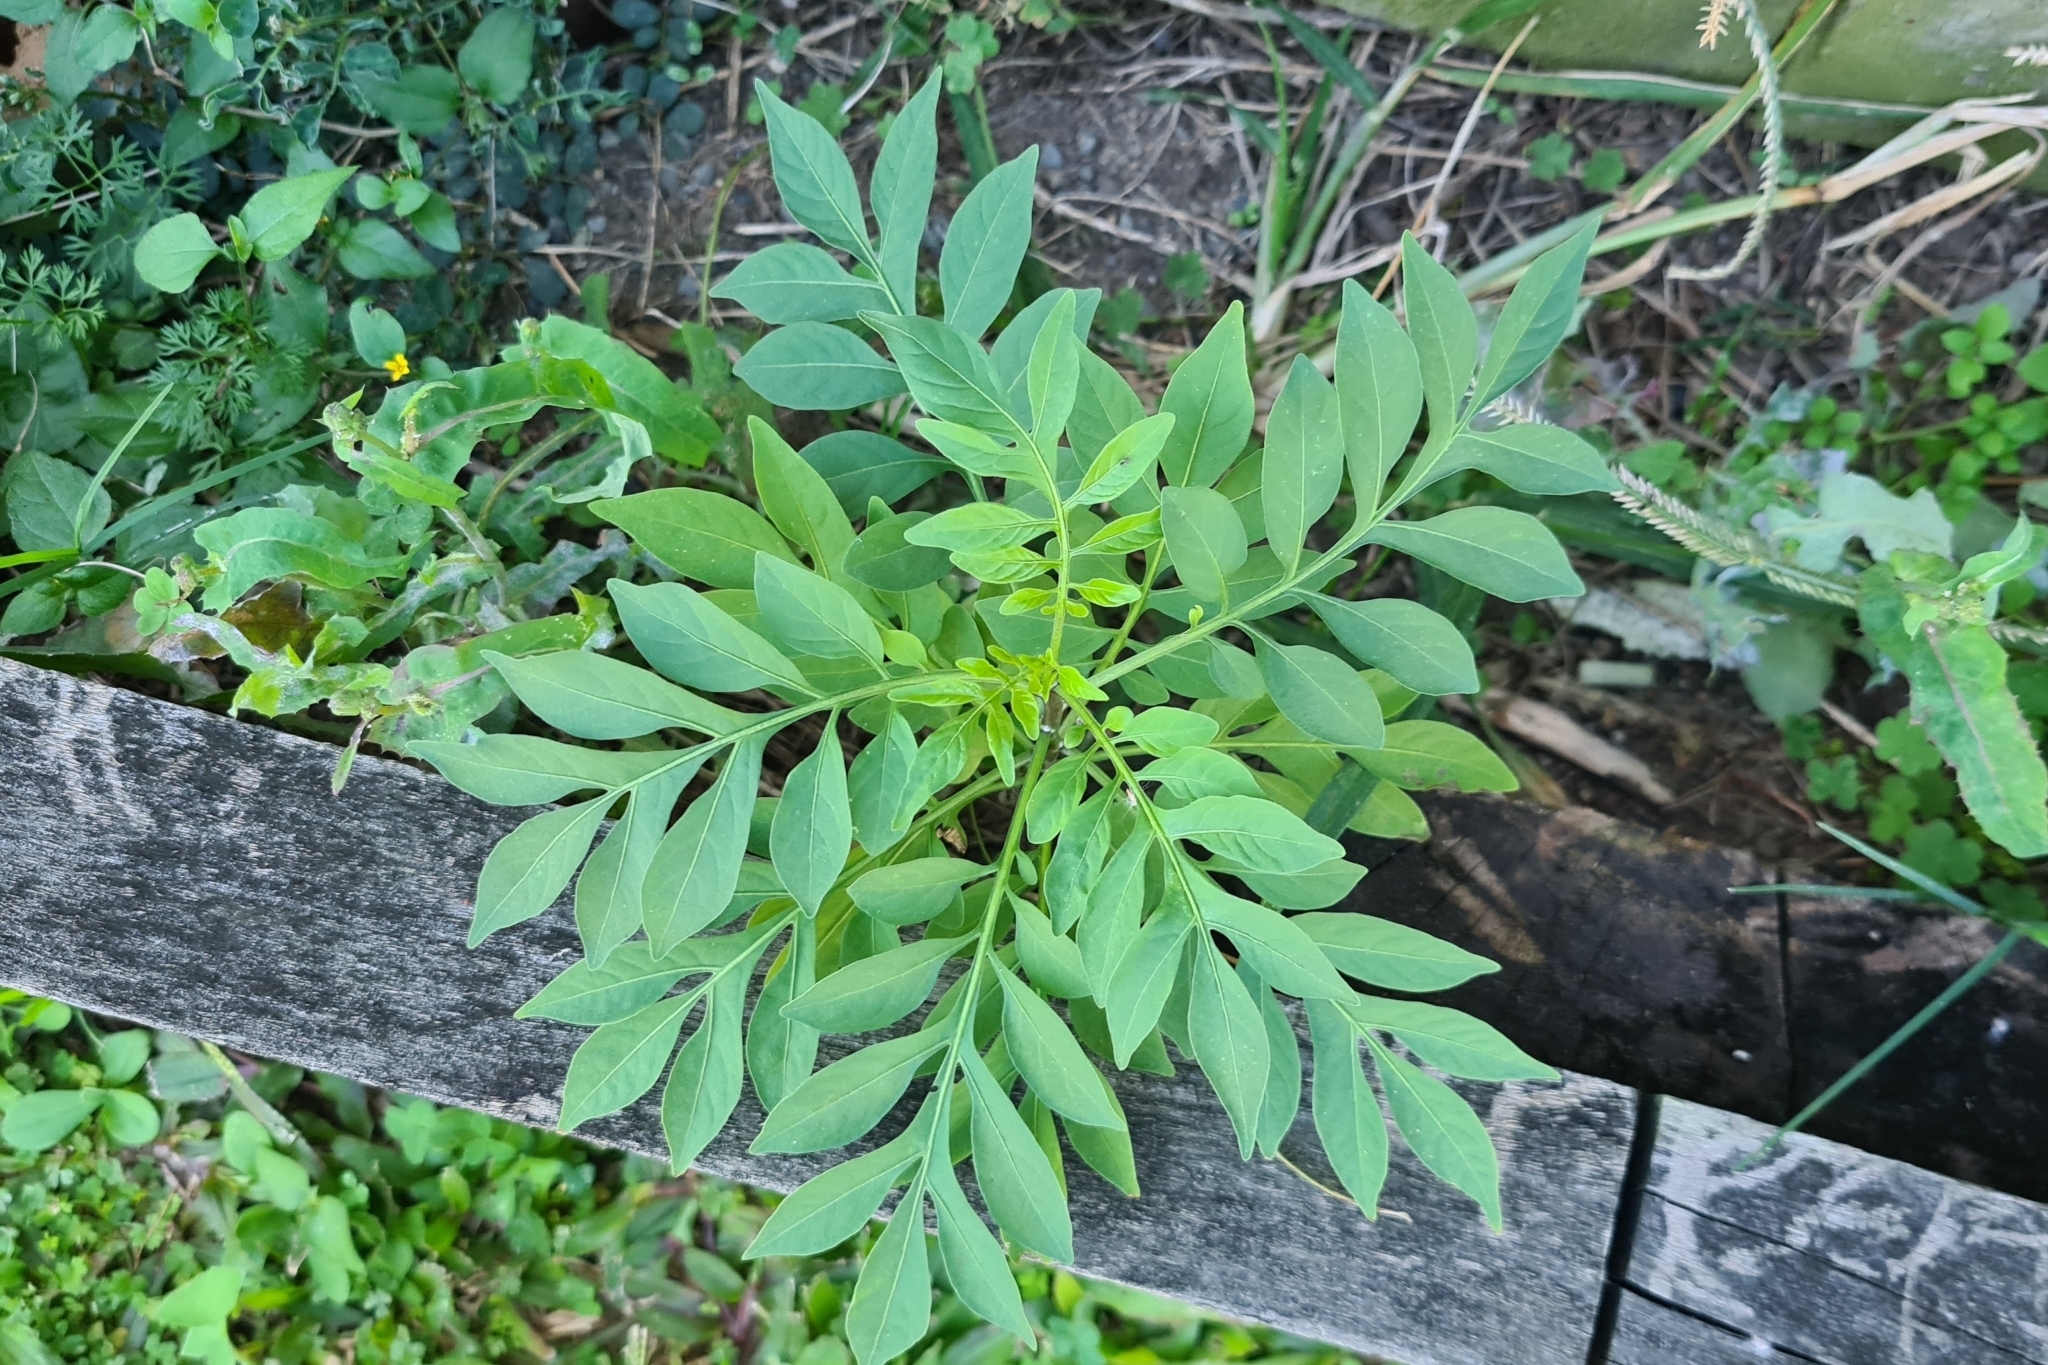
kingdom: Plantae
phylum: Tracheophyta
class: Magnoliopsida
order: Solanales
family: Solanaceae
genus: Solanum
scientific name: Solanum seaforthianum
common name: Brazilian nightshade
